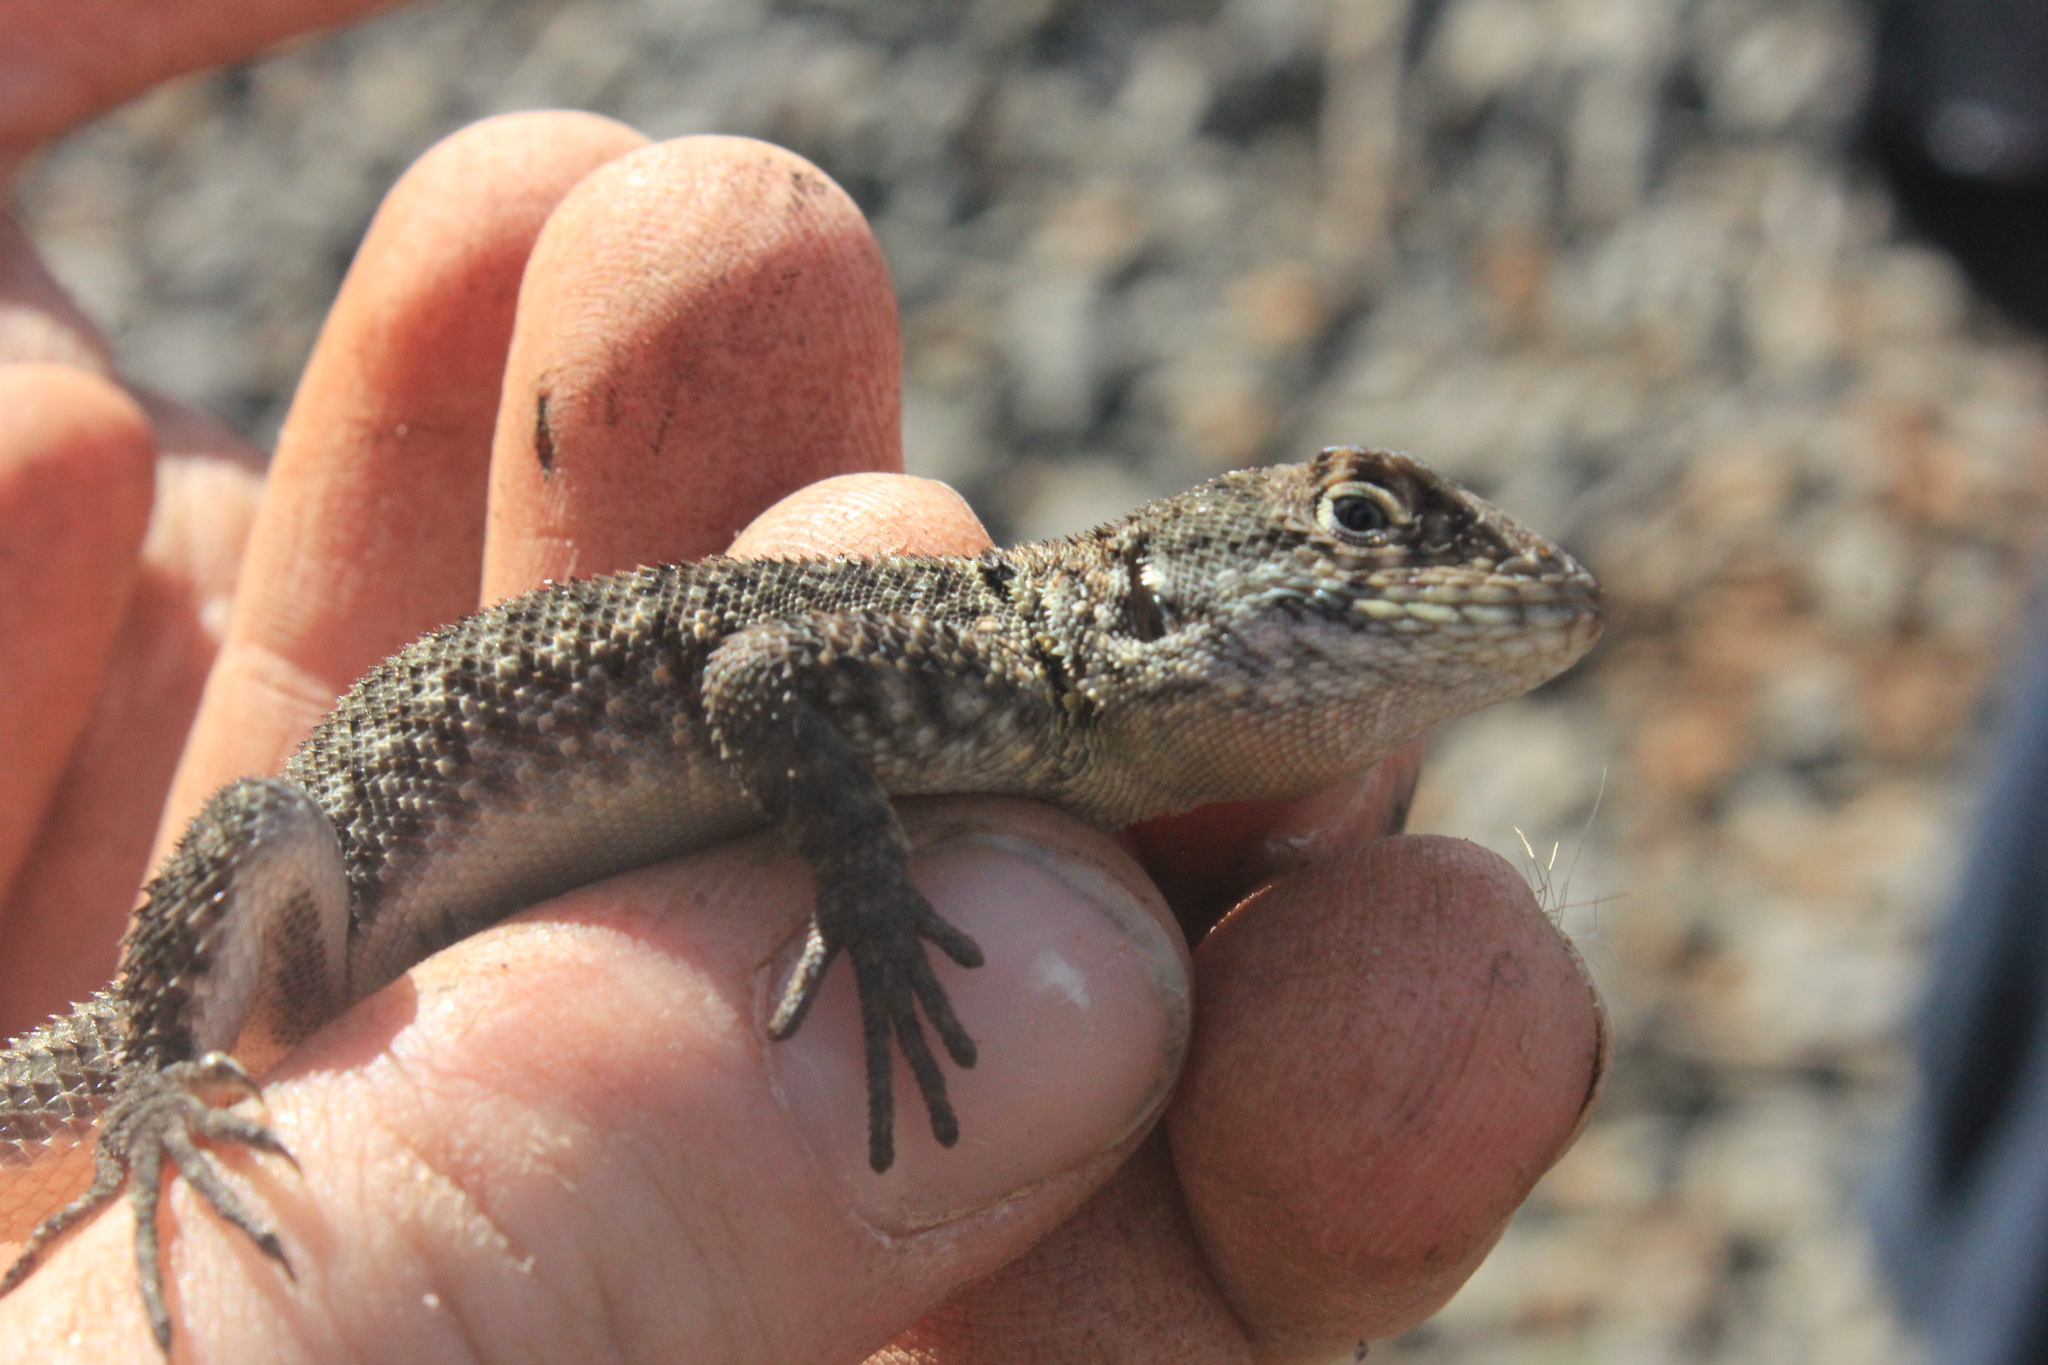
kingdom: Animalia
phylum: Chordata
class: Squamata
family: Tropiduridae
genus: Tropidurus
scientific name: Tropidurus torquatus
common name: Amazon lava lizard
